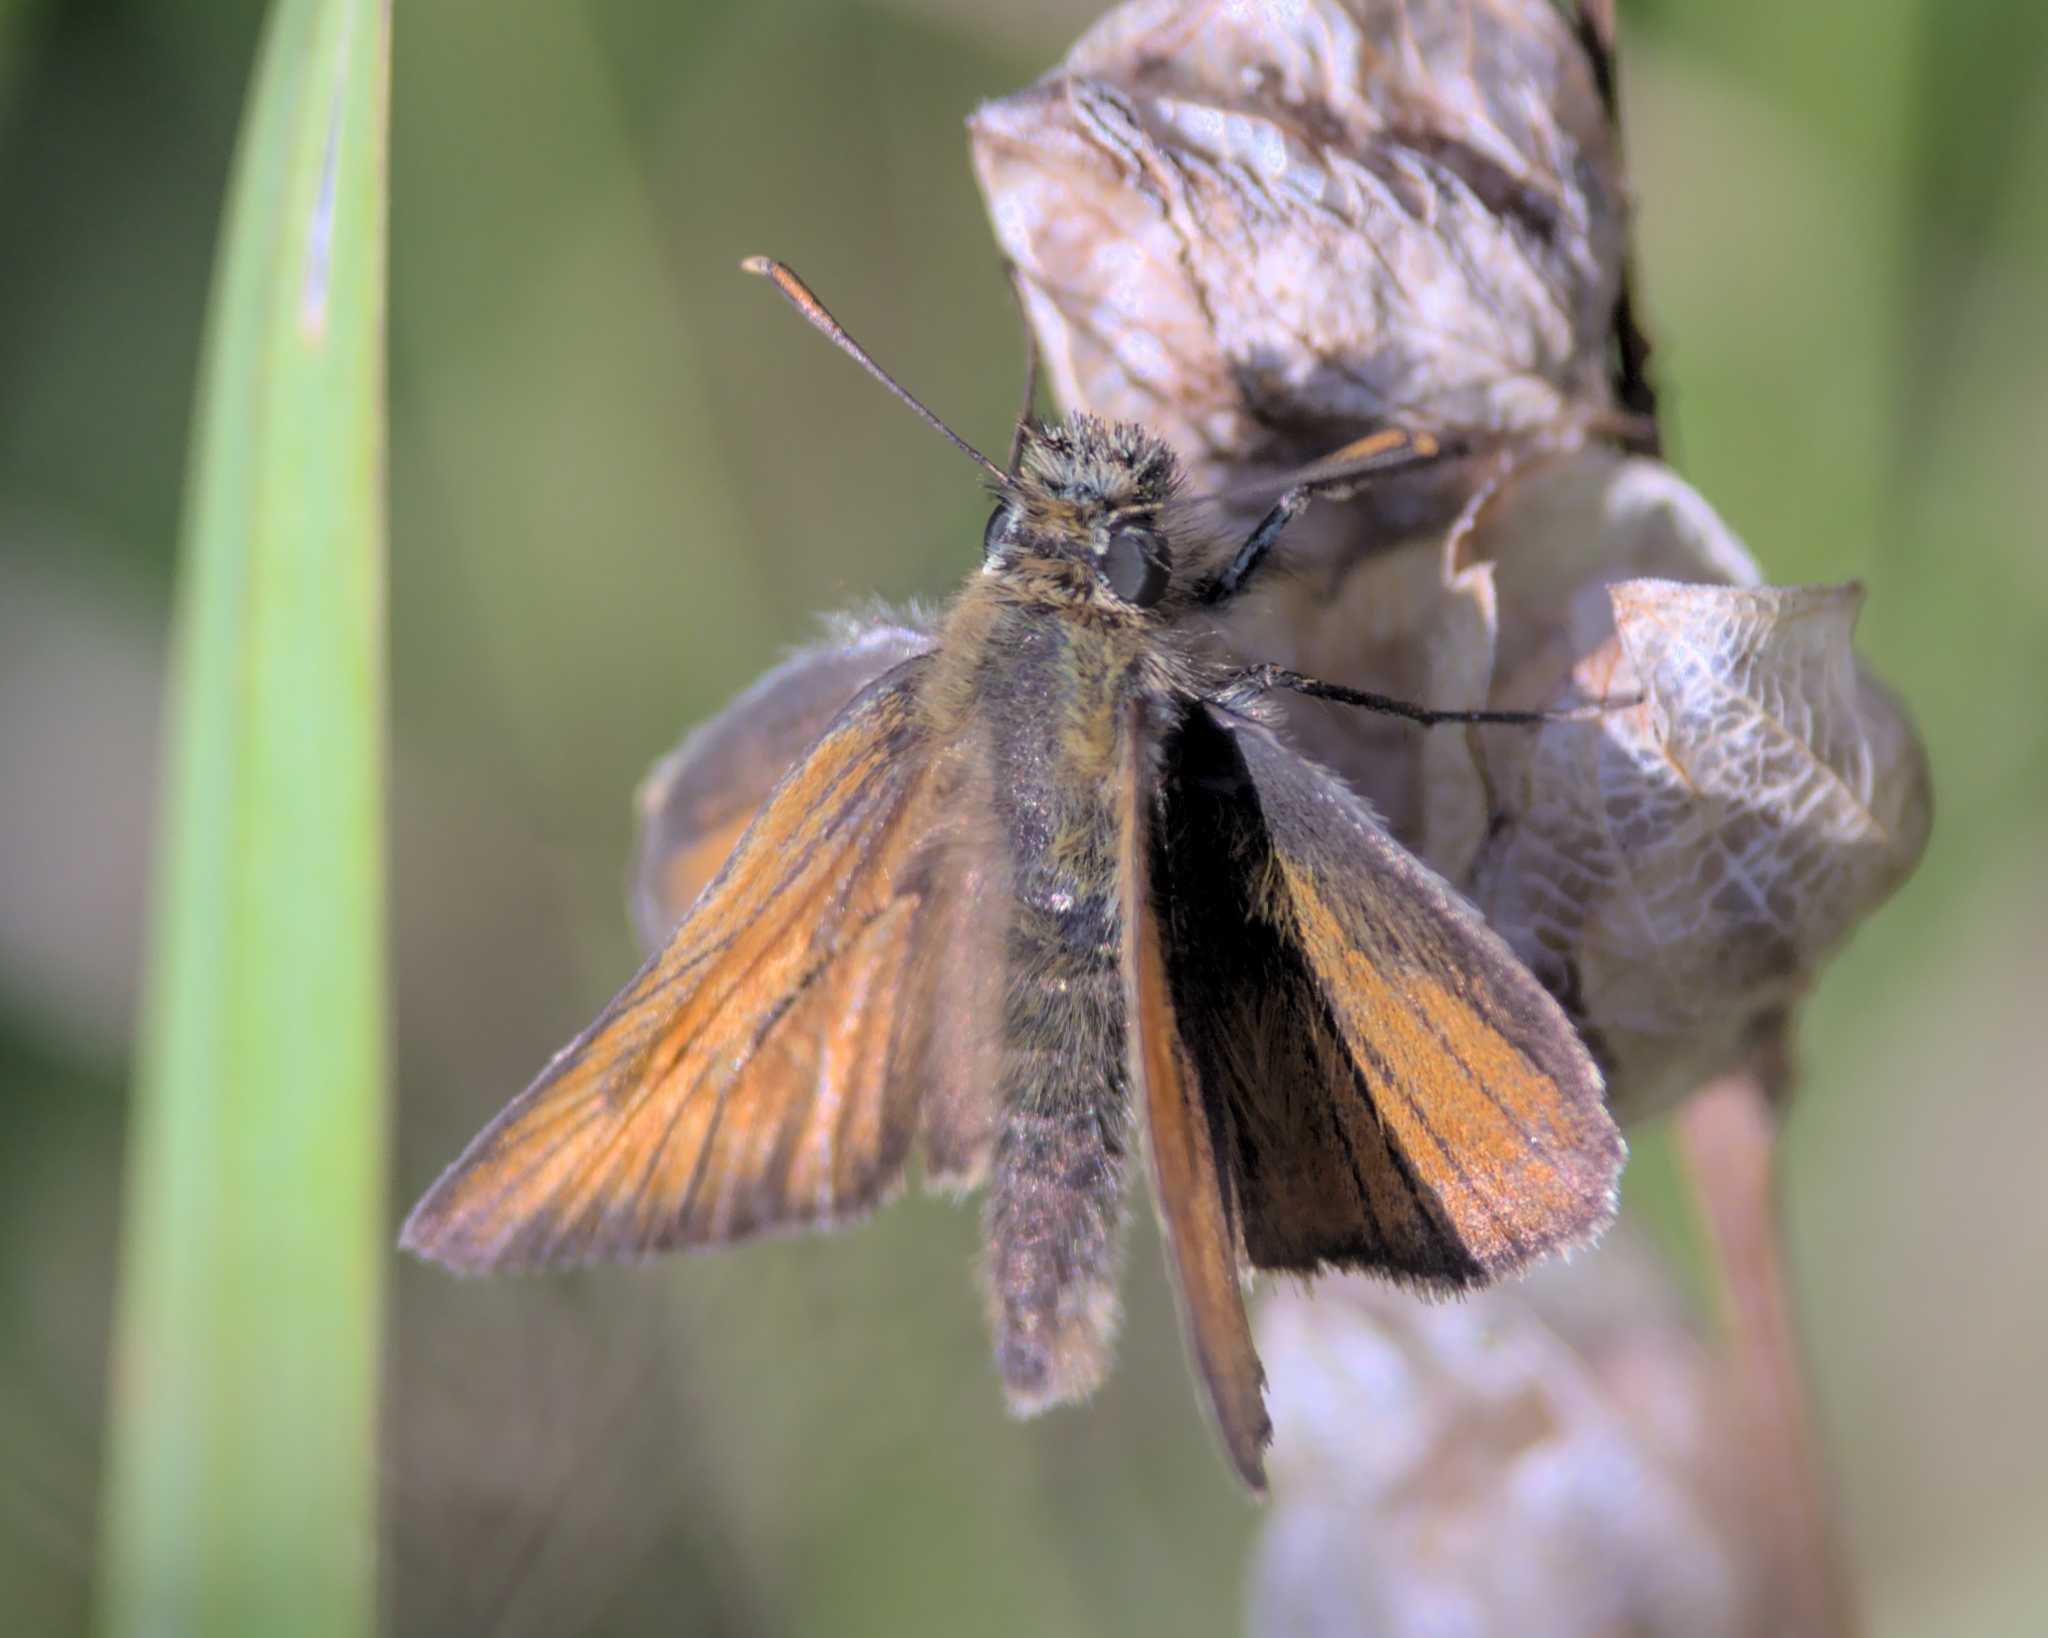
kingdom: Animalia
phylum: Arthropoda
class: Insecta
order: Lepidoptera
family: Hesperiidae
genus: Thymelicus
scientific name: Thymelicus sylvestris
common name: Small skipper
